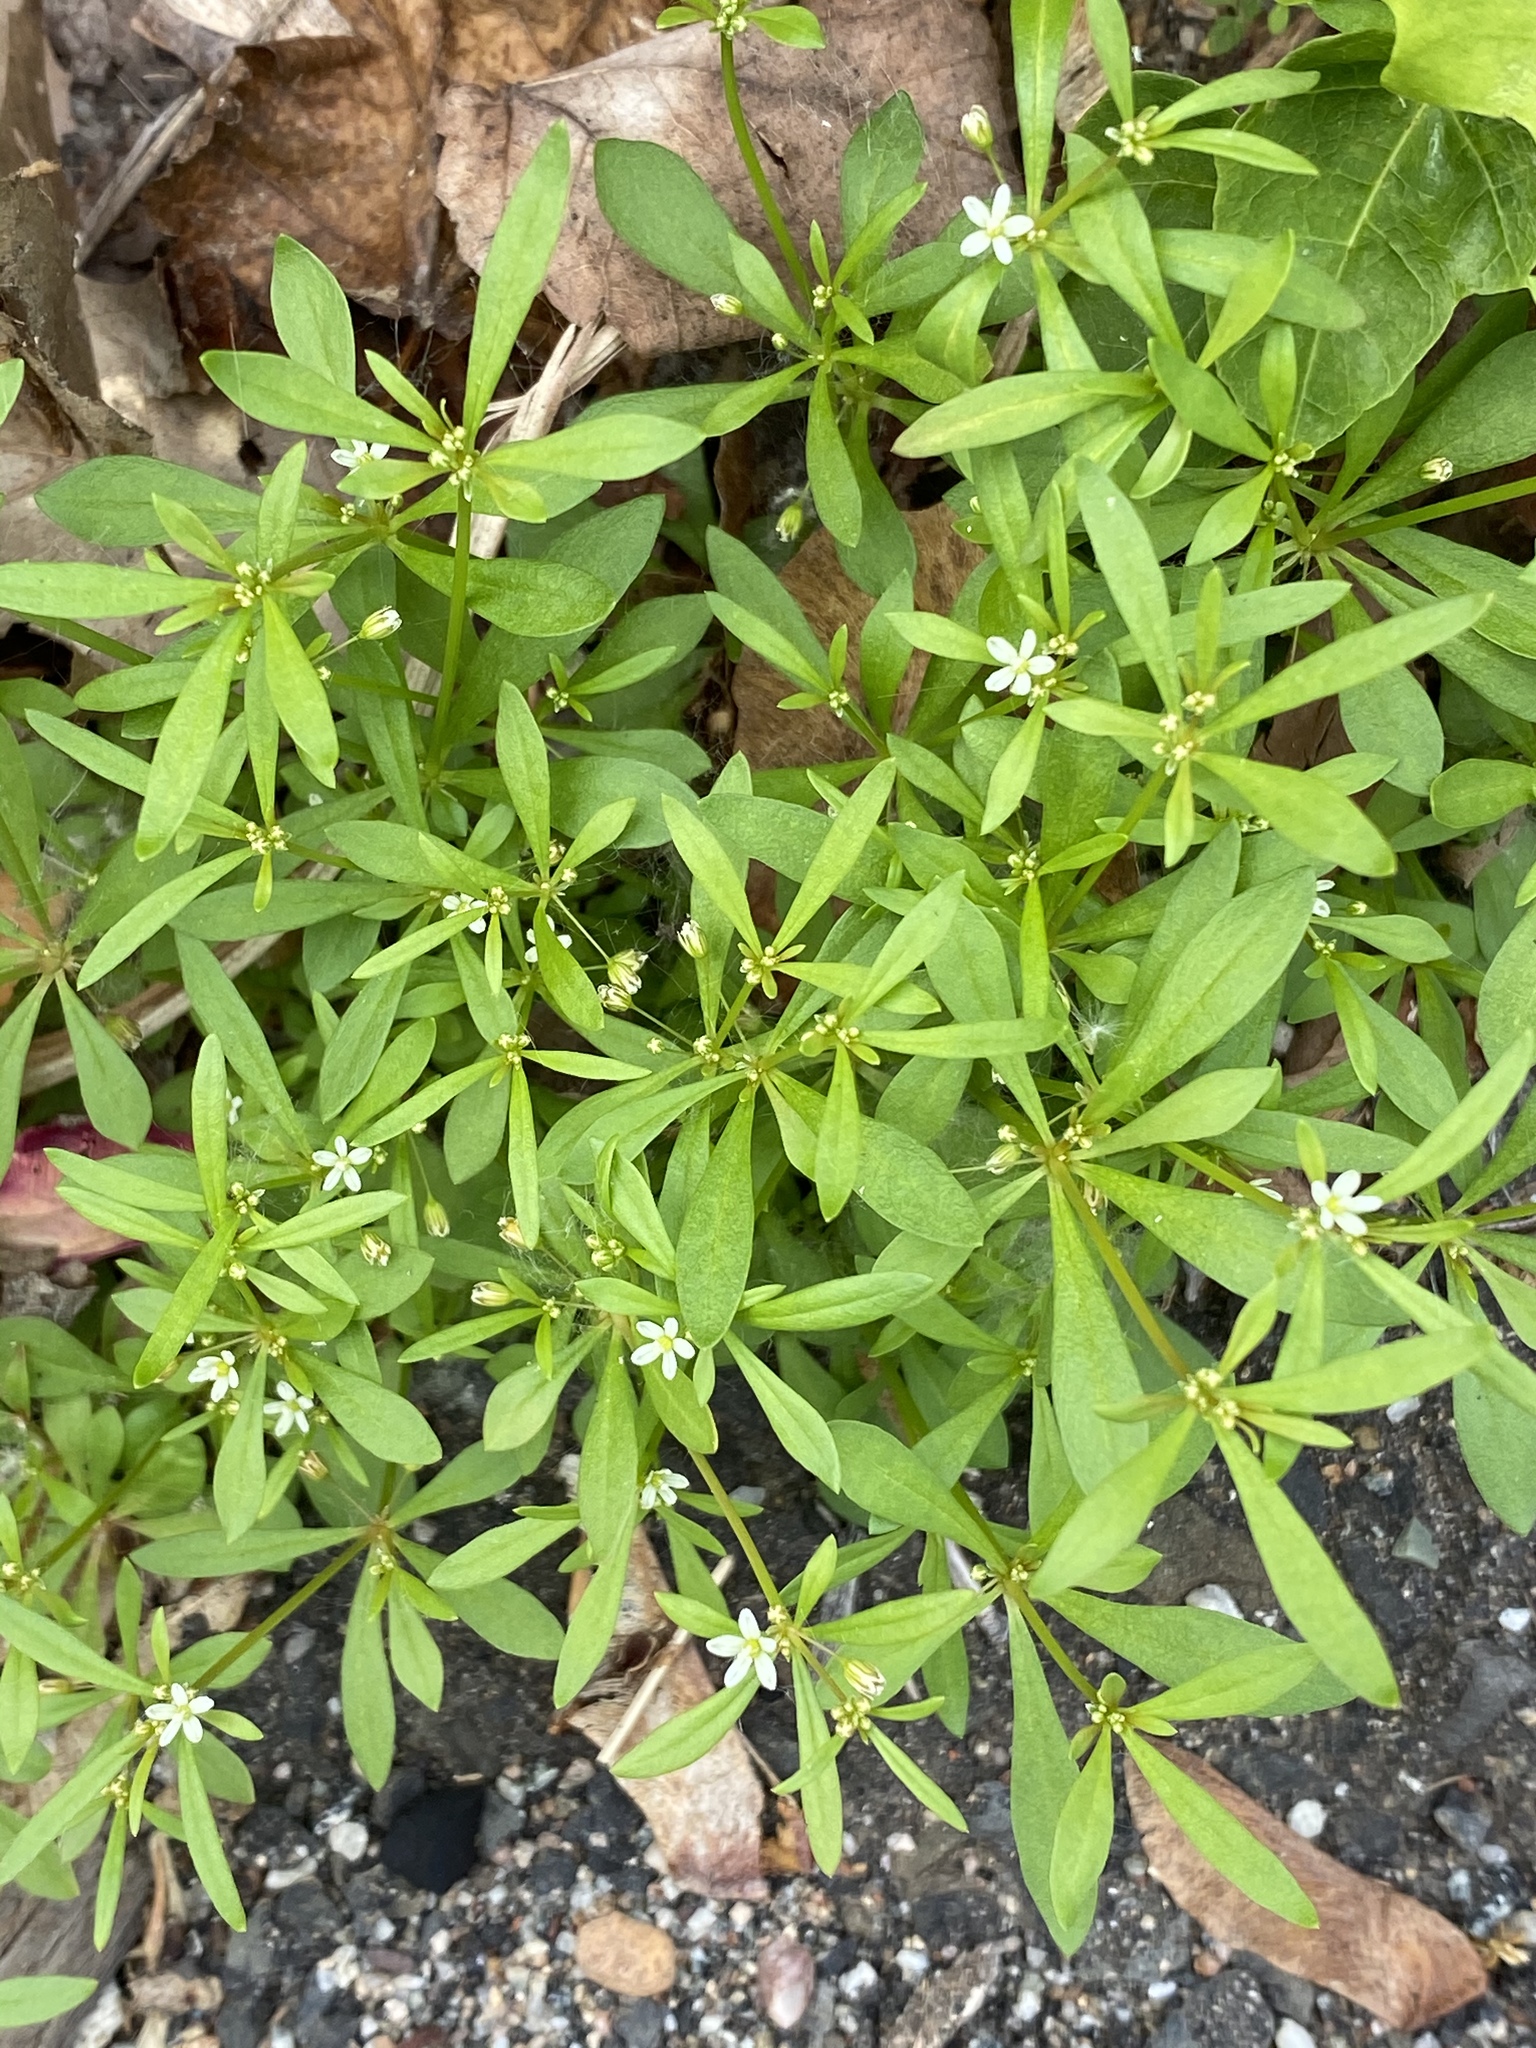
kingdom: Plantae
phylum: Tracheophyta
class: Magnoliopsida
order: Caryophyllales
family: Molluginaceae
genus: Mollugo
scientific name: Mollugo verticillata
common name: Green carpetweed
